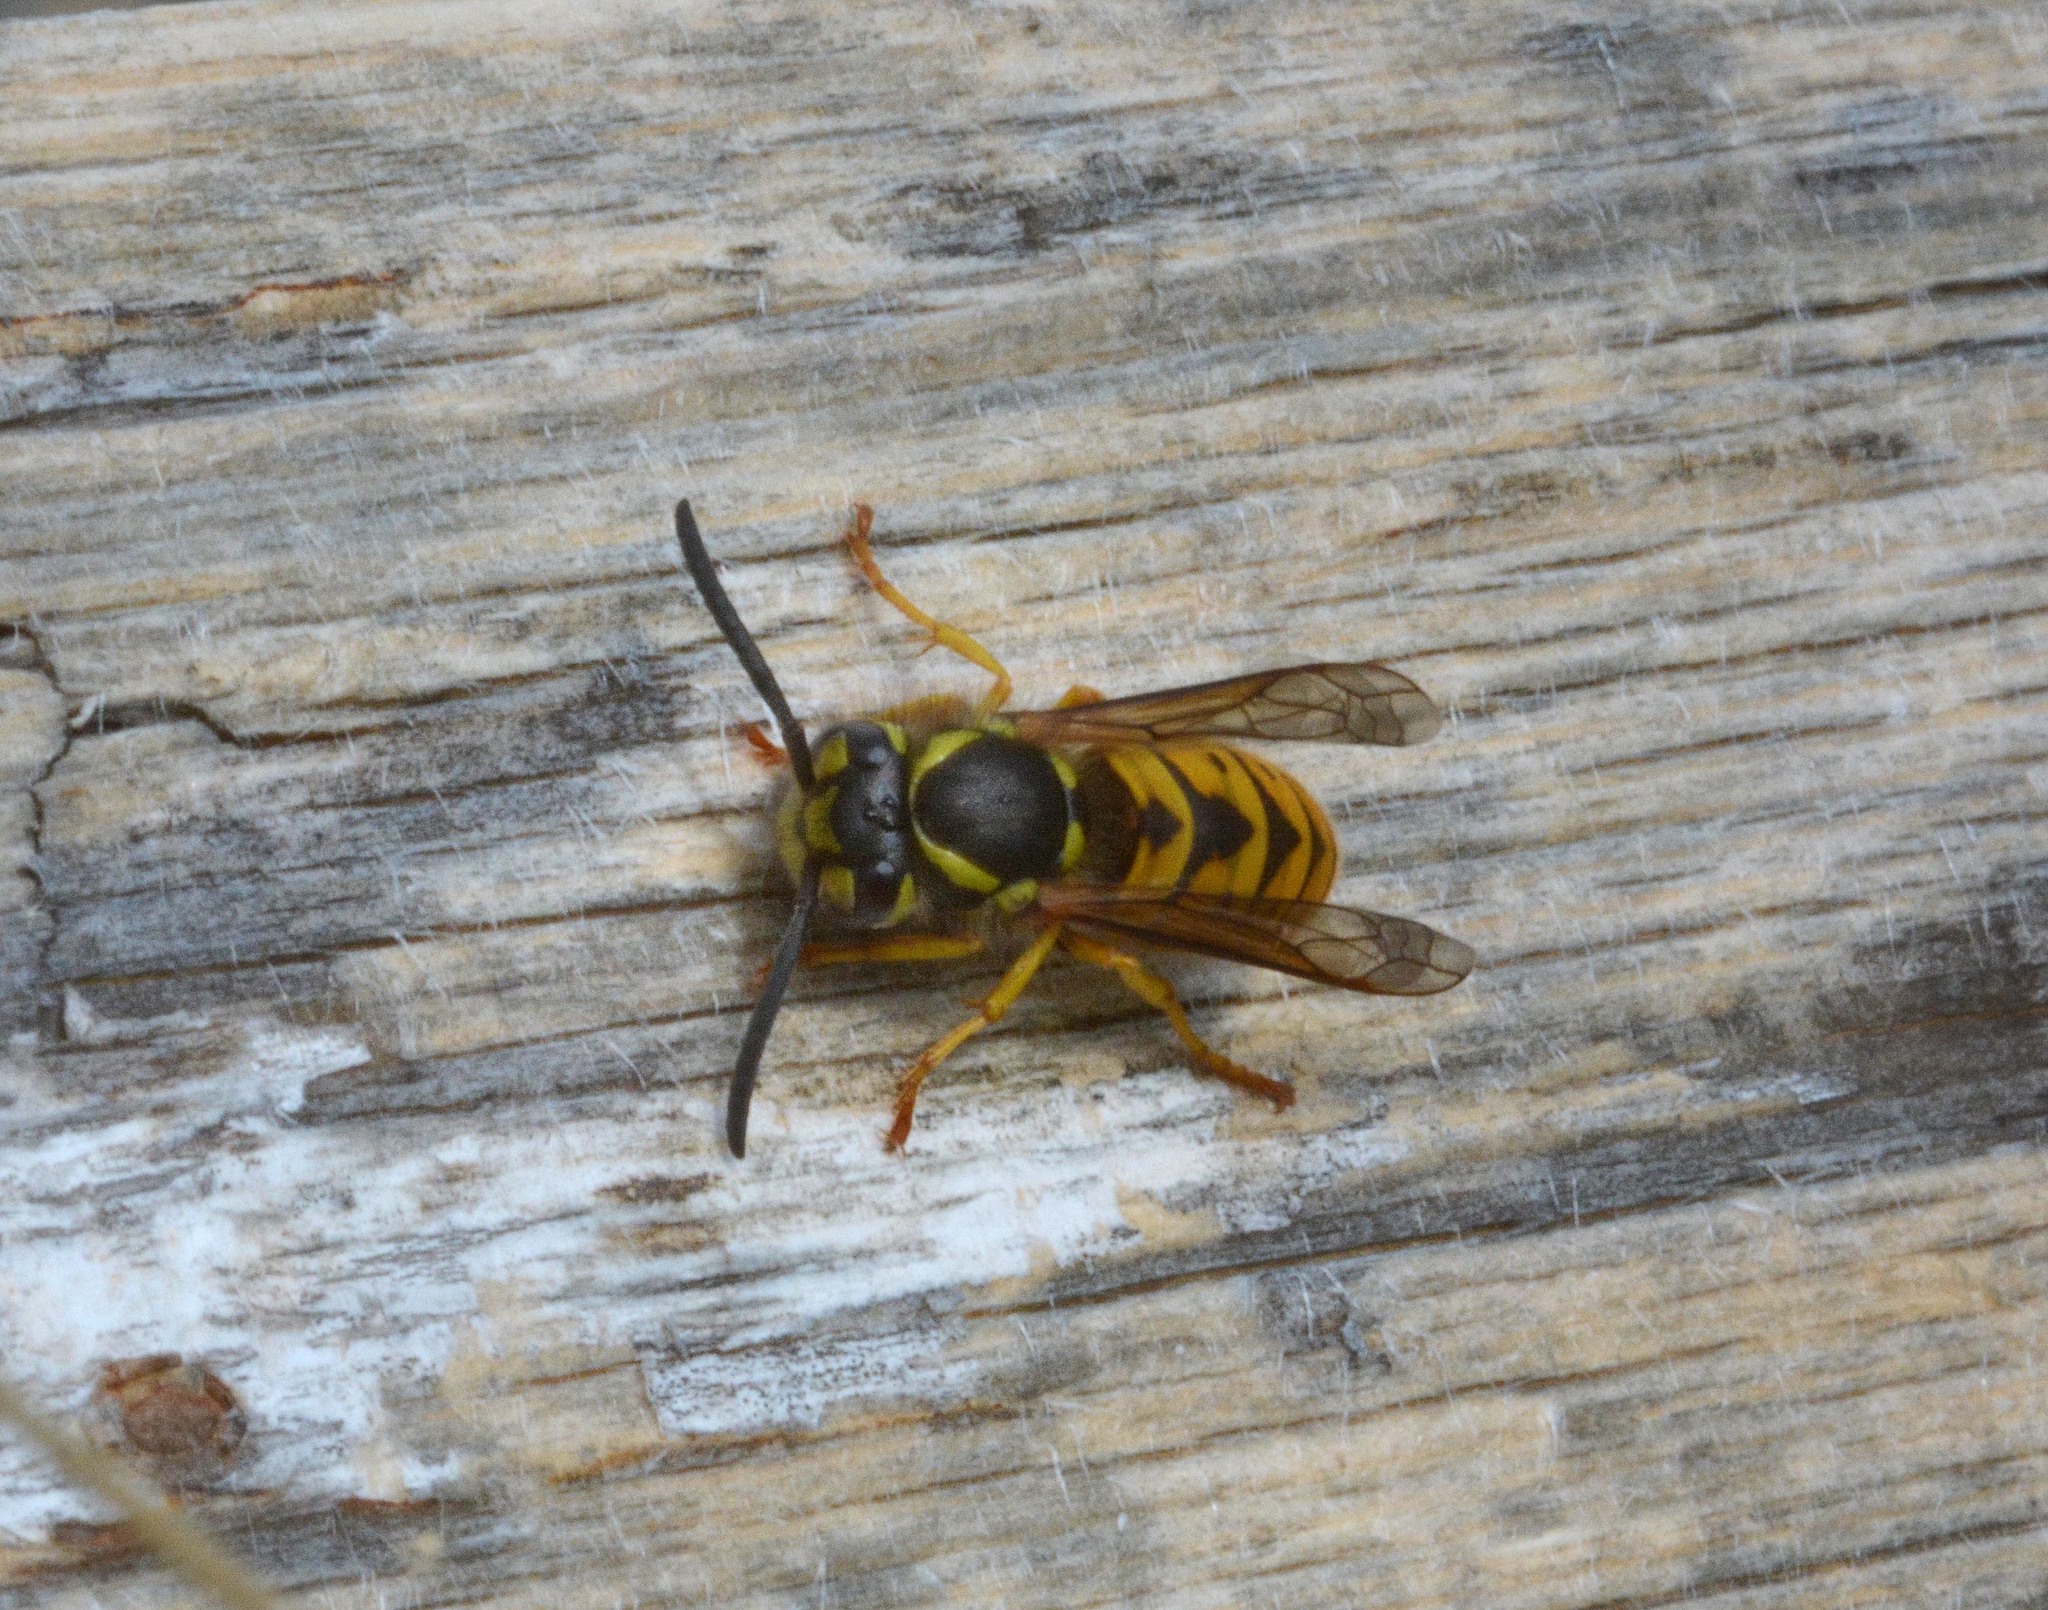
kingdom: Animalia
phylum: Arthropoda
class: Insecta
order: Hymenoptera
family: Vespidae
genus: Vespula
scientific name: Vespula germanica
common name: German wasp
